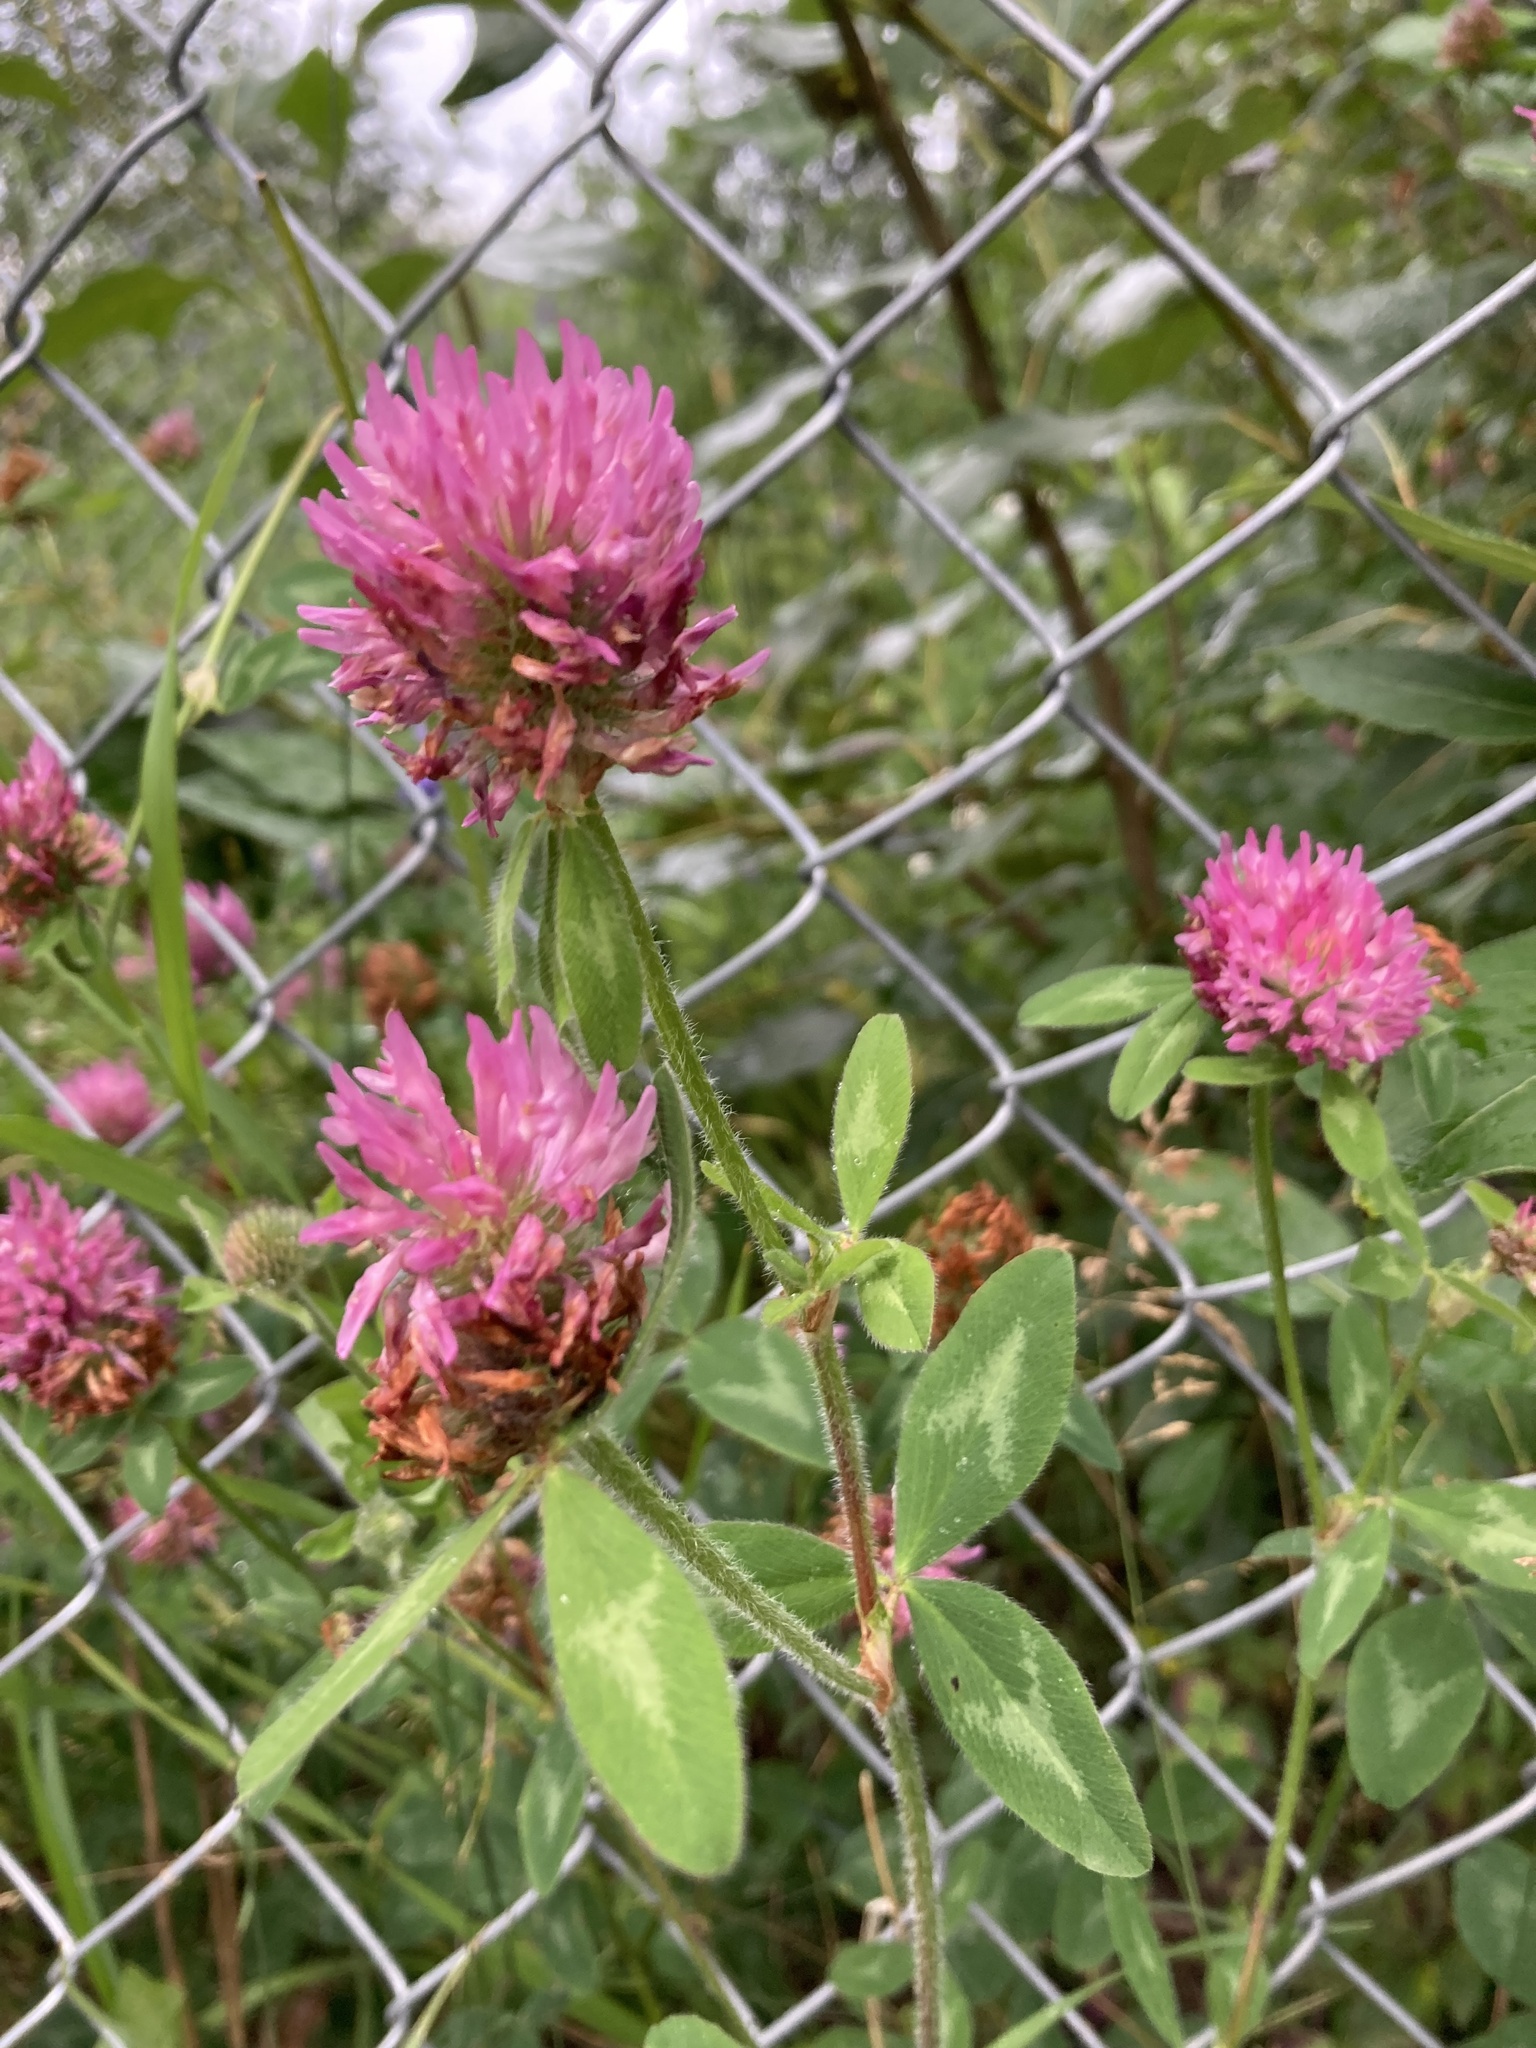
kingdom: Plantae
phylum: Tracheophyta
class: Magnoliopsida
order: Fabales
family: Fabaceae
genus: Trifolium
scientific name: Trifolium pratense
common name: Red clover
